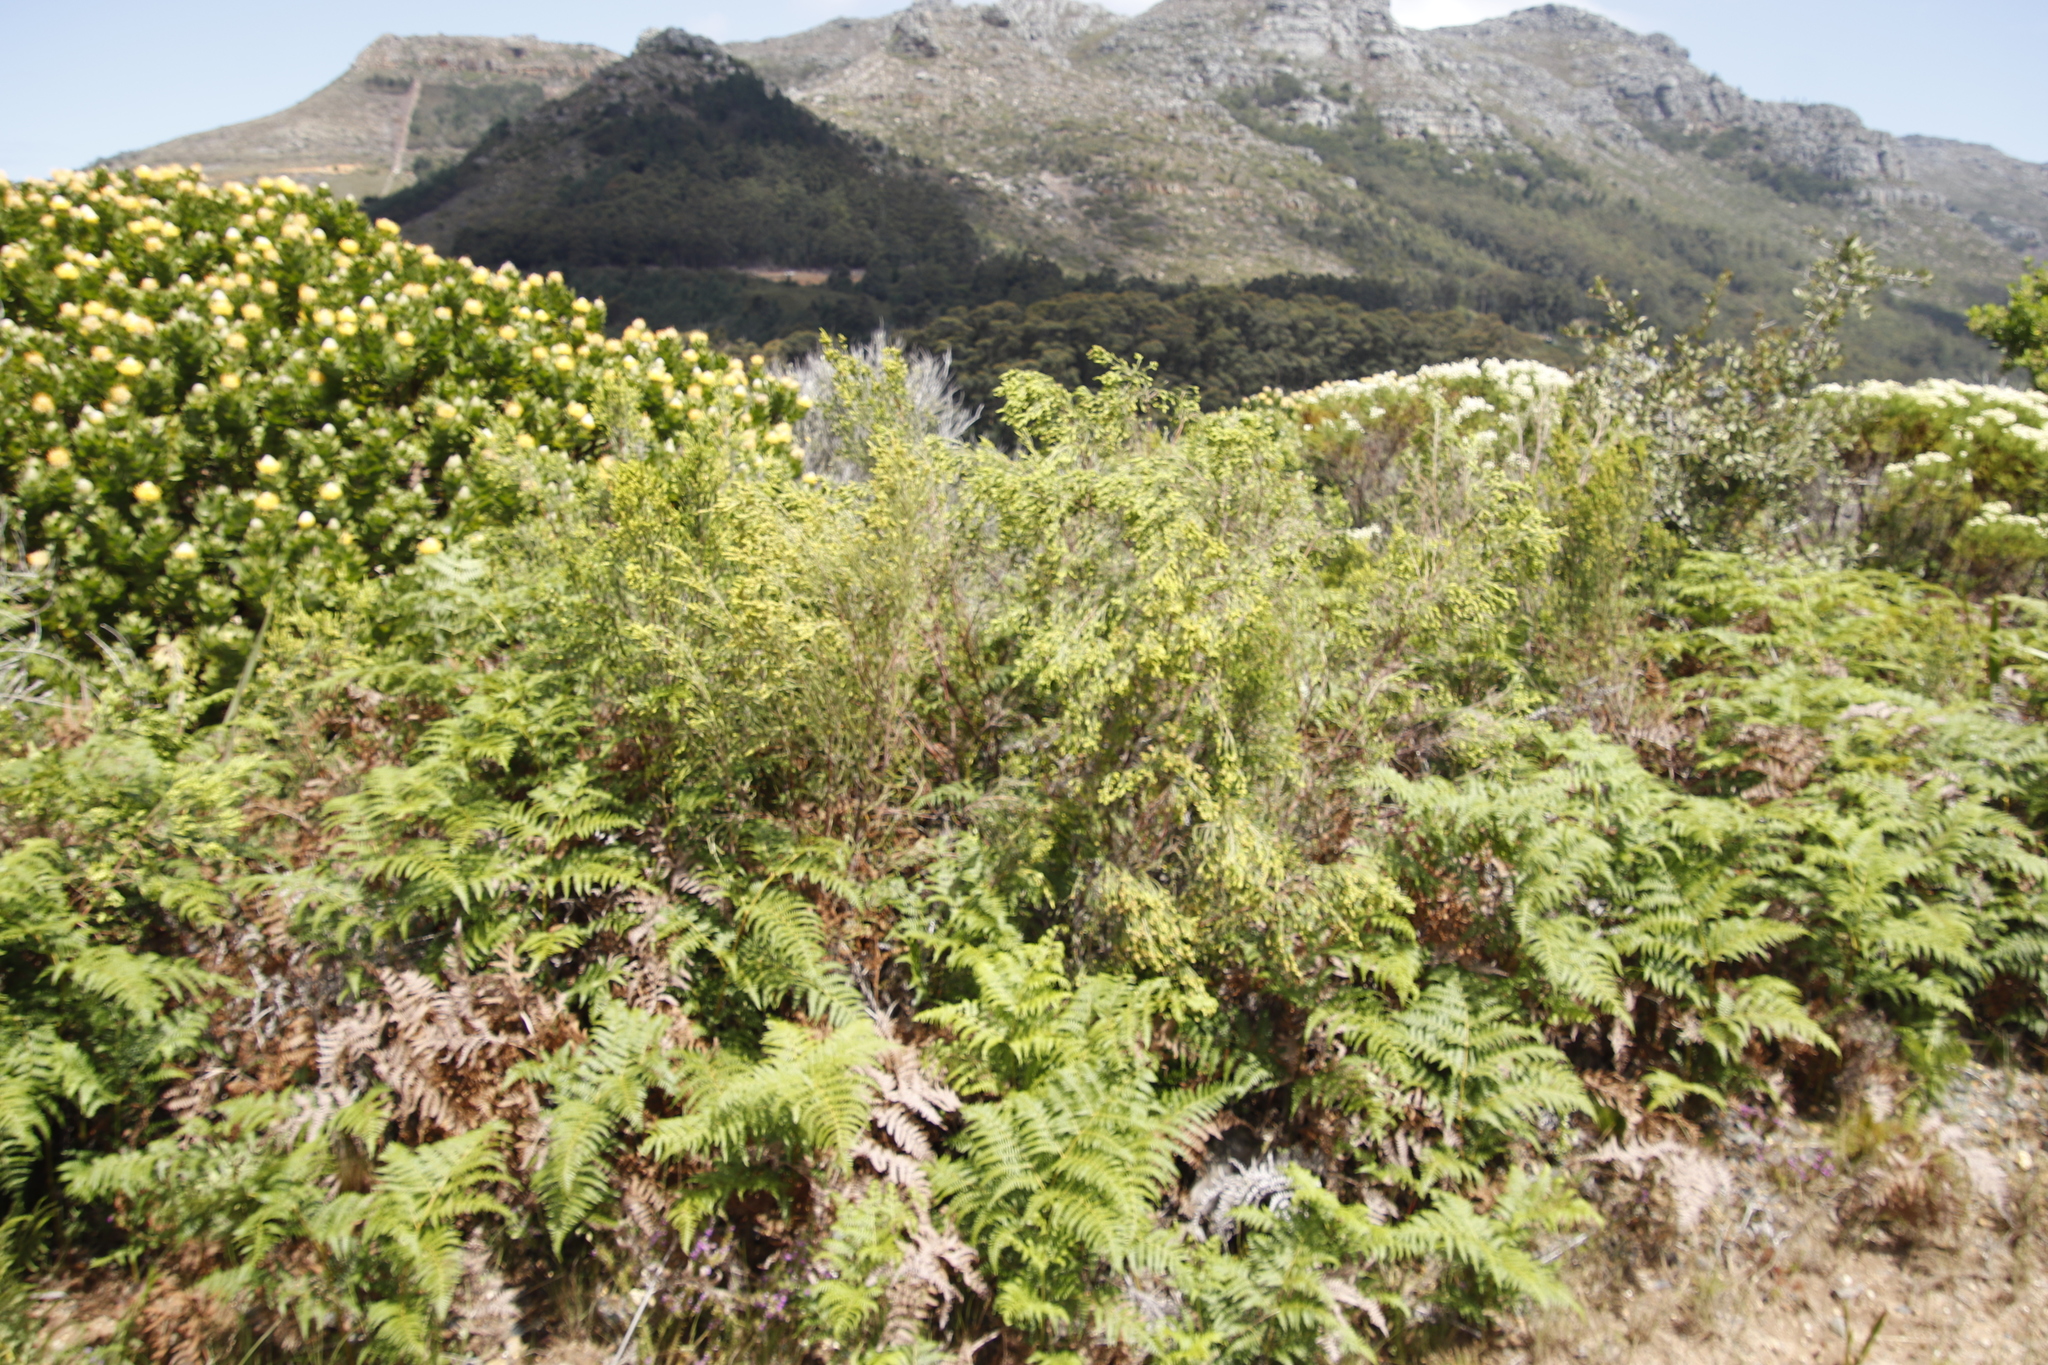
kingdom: Plantae
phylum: Tracheophyta
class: Polypodiopsida
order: Polypodiales
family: Dennstaedtiaceae
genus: Pteridium
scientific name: Pteridium aquilinum
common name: Bracken
